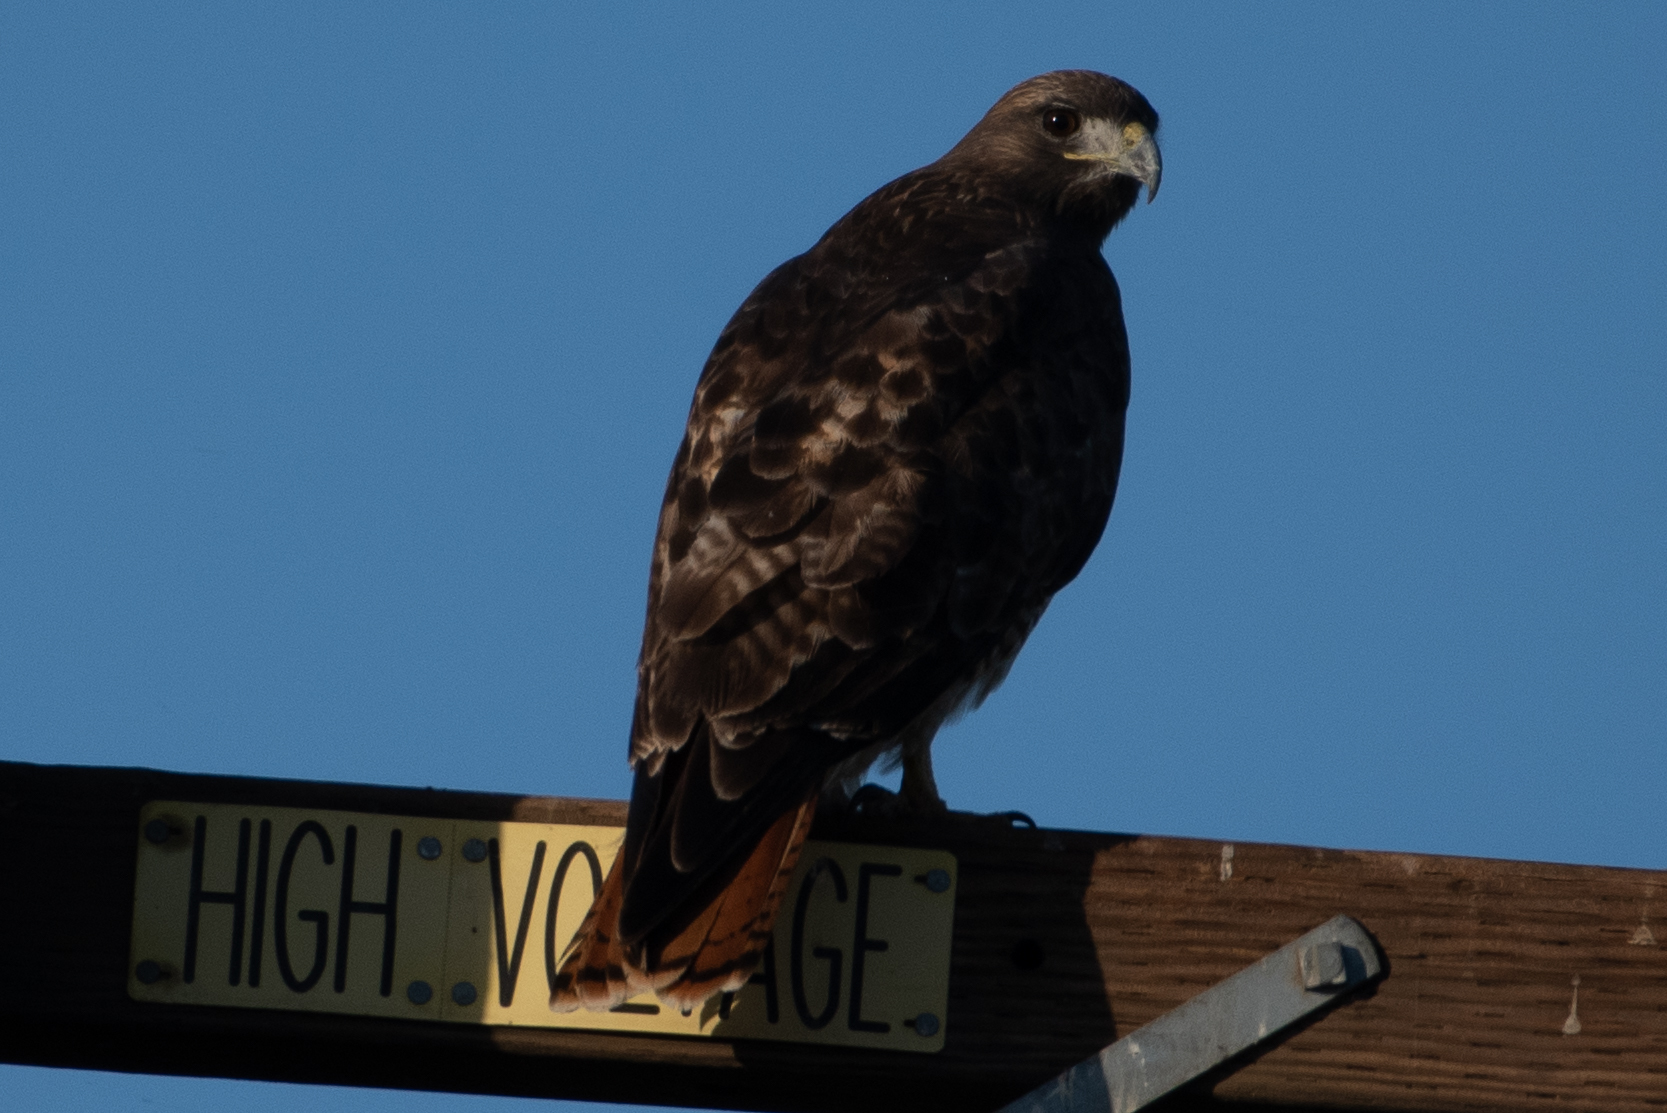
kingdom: Animalia
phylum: Chordata
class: Aves
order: Accipitriformes
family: Accipitridae
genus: Buteo
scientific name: Buteo jamaicensis
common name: Red-tailed hawk
